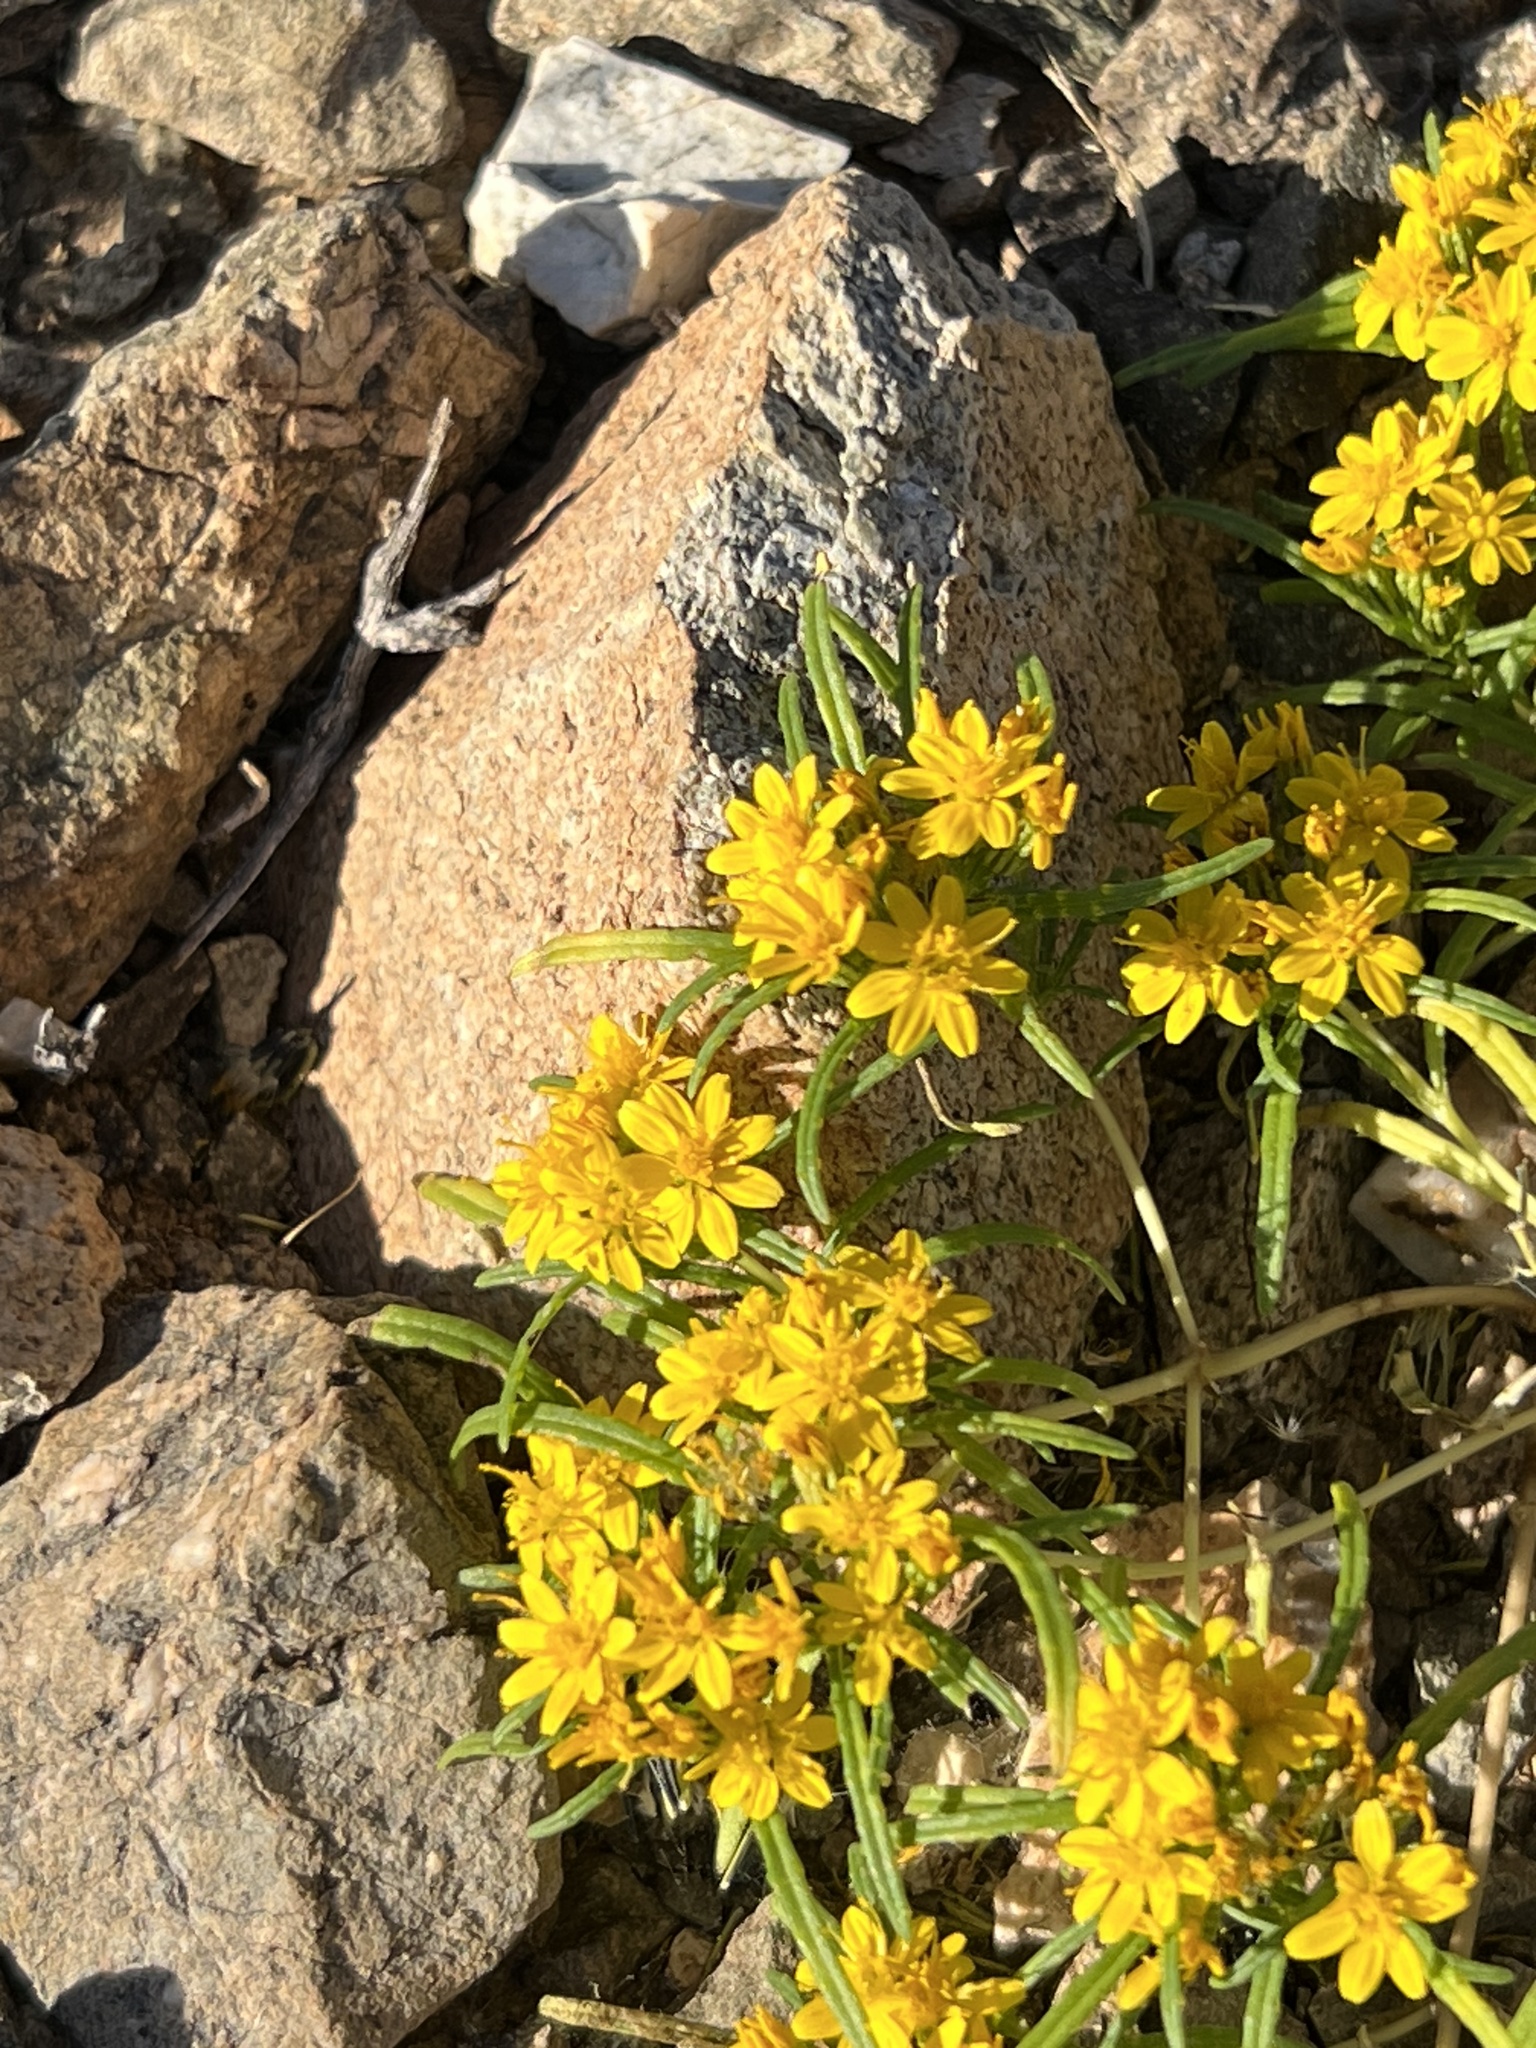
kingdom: Plantae
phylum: Tracheophyta
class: Magnoliopsida
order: Asterales
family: Asteraceae
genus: Pectis
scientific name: Pectis papposa
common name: Many-bristle chinchweed
